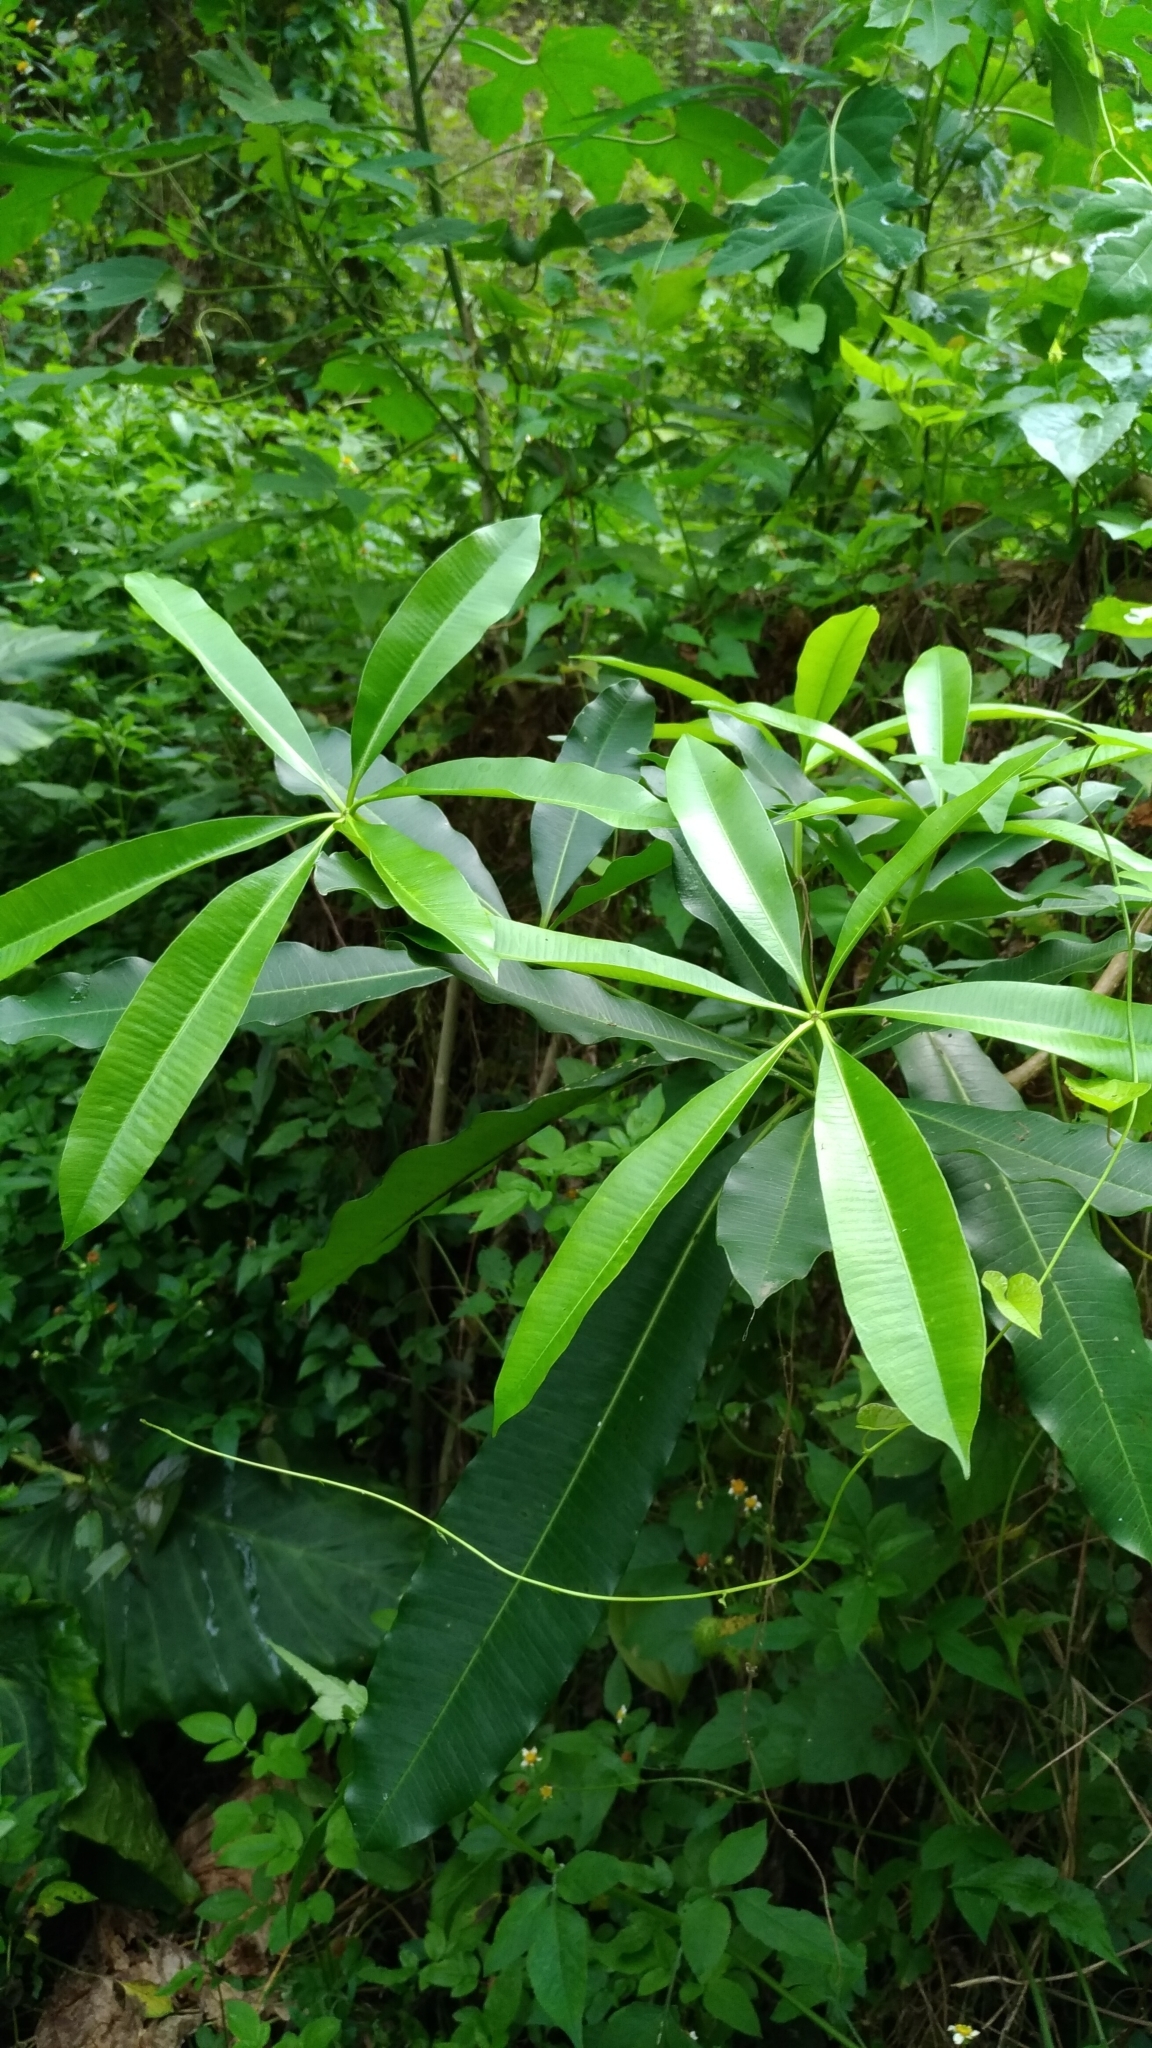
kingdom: Plantae
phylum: Tracheophyta
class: Magnoliopsida
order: Gentianales
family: Apocynaceae
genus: Alstonia
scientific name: Alstonia scholaris
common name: White cheesewood
